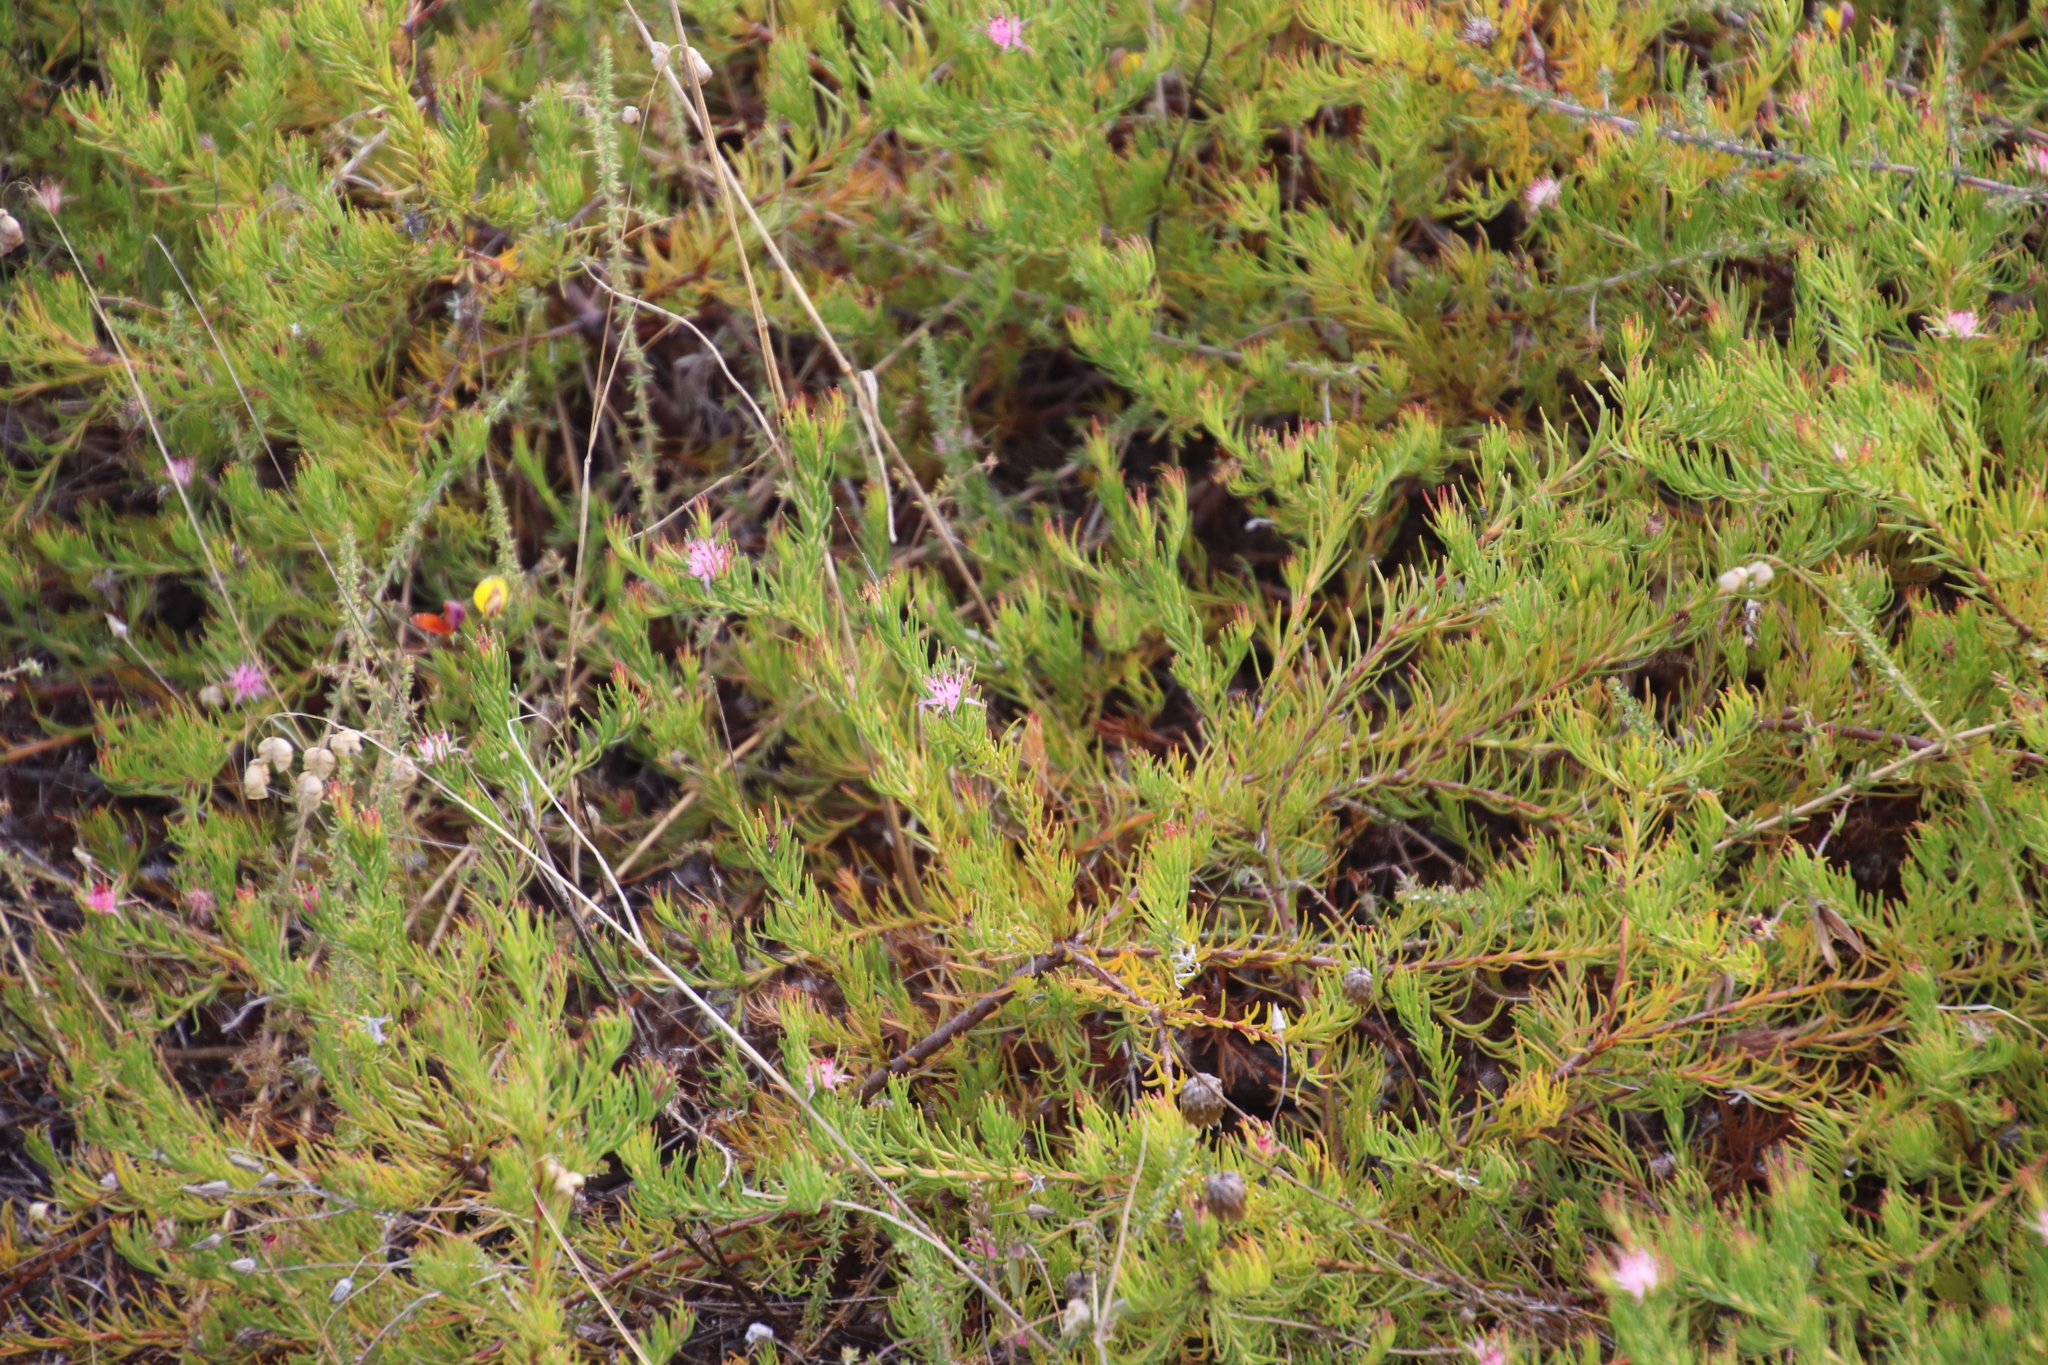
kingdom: Plantae
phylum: Tracheophyta
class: Magnoliopsida
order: Proteales
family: Proteaceae
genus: Diastella
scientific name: Diastella proteoides
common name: Flats silkypuff
